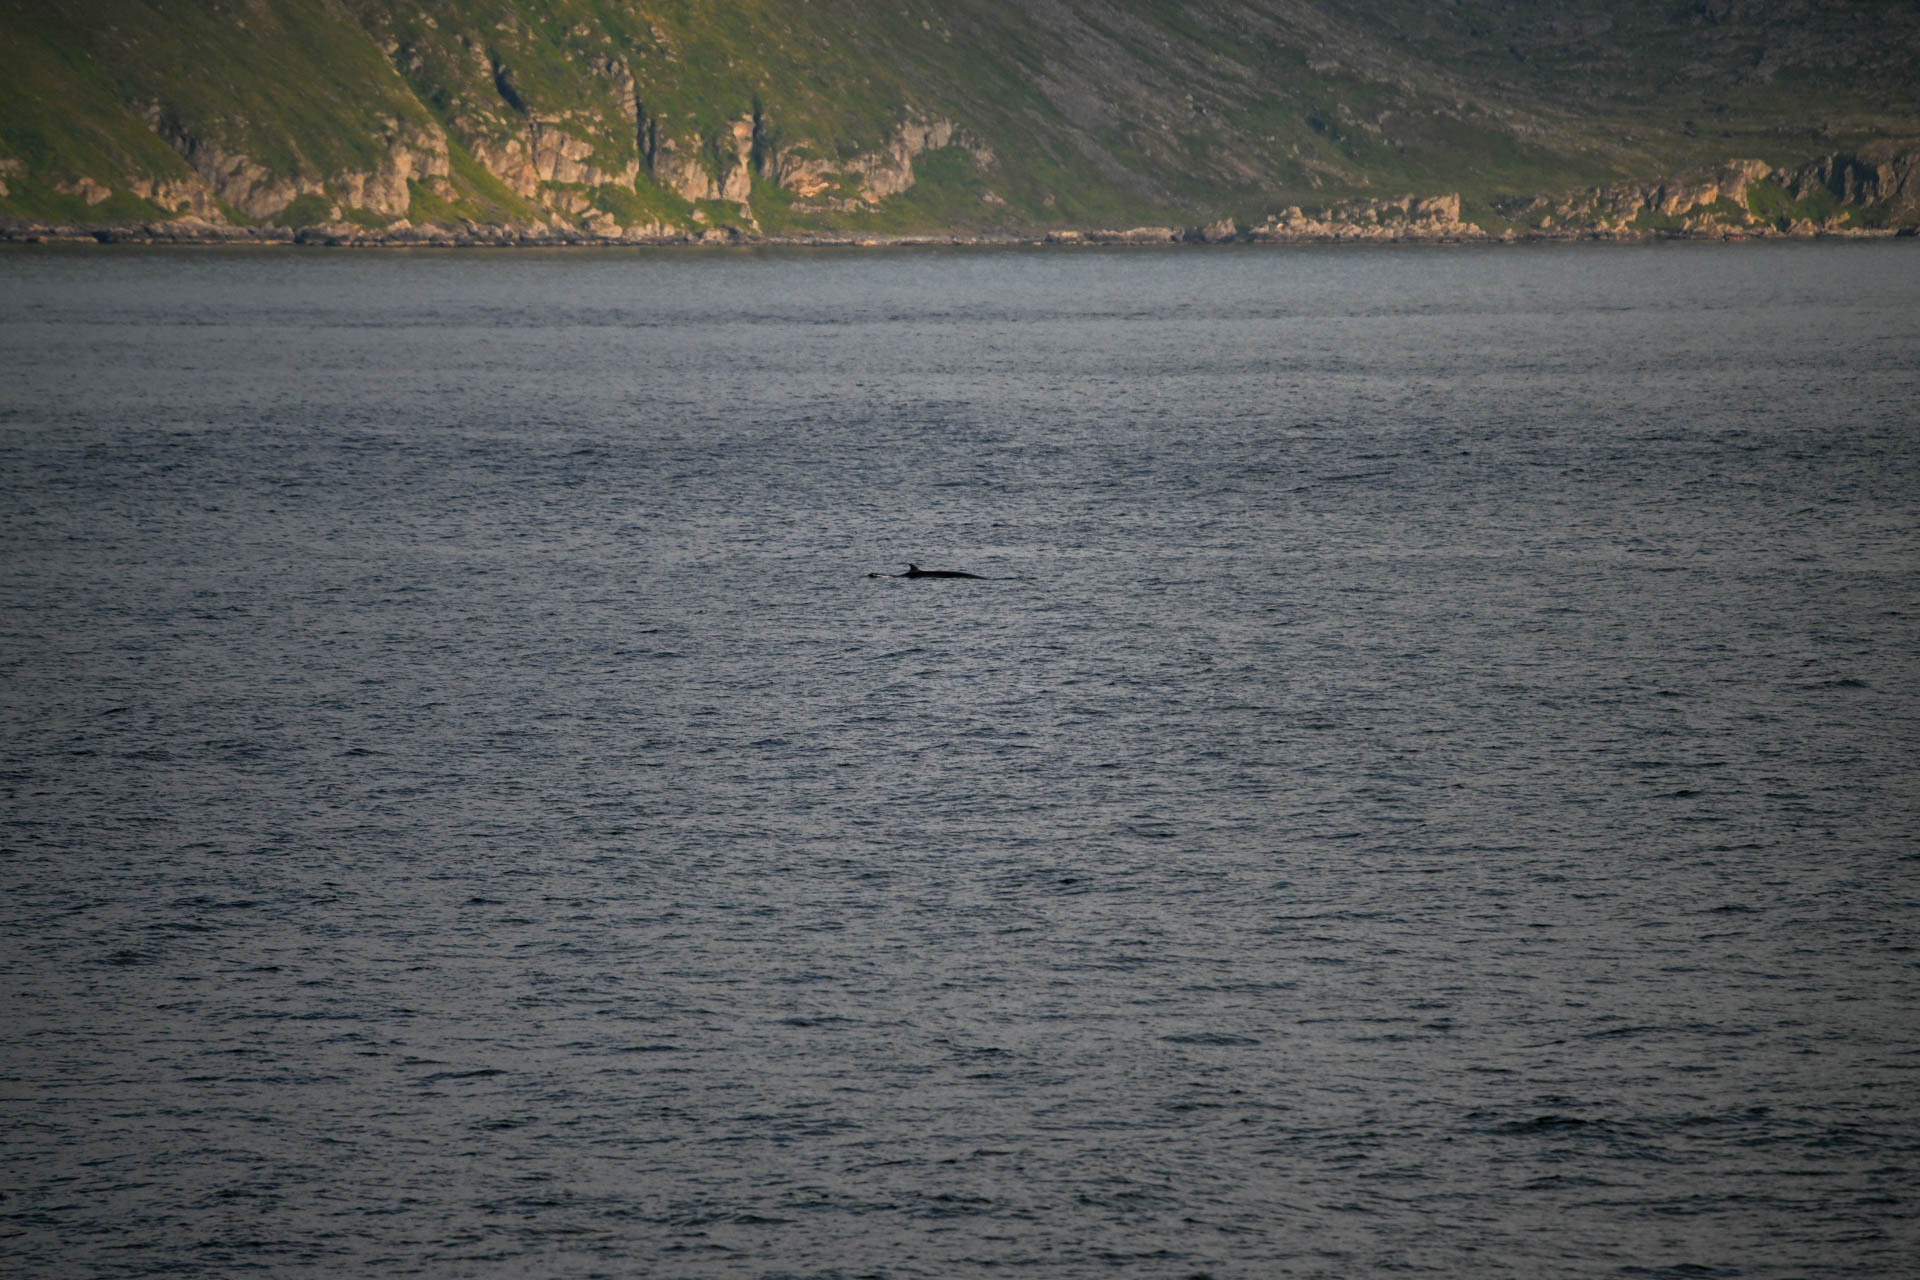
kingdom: Animalia
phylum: Chordata
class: Mammalia
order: Cetacea
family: Balaenopteridae
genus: Balaenoptera
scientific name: Balaenoptera acutorostrata
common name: Common minke whale
